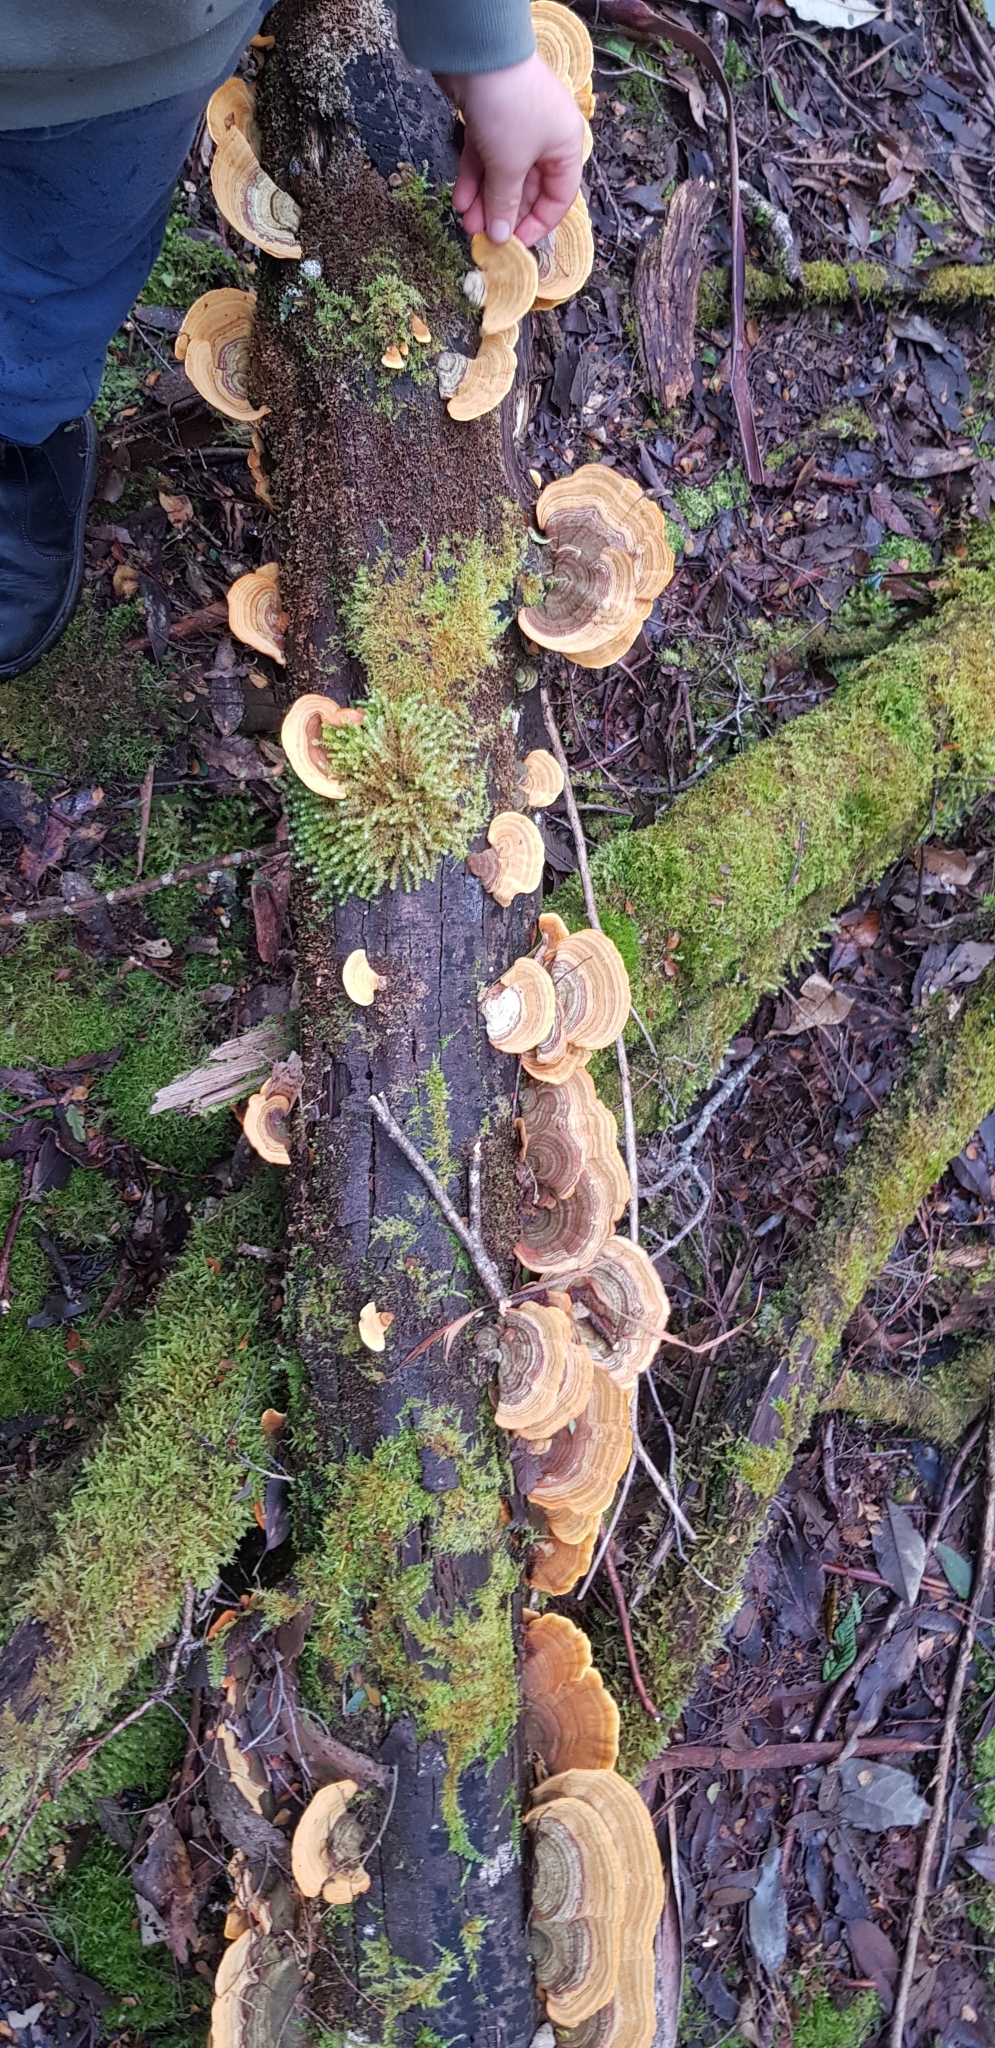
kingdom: Fungi
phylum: Basidiomycota
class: Agaricomycetes
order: Russulales
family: Stereaceae
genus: Stereum
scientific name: Stereum versicolor
